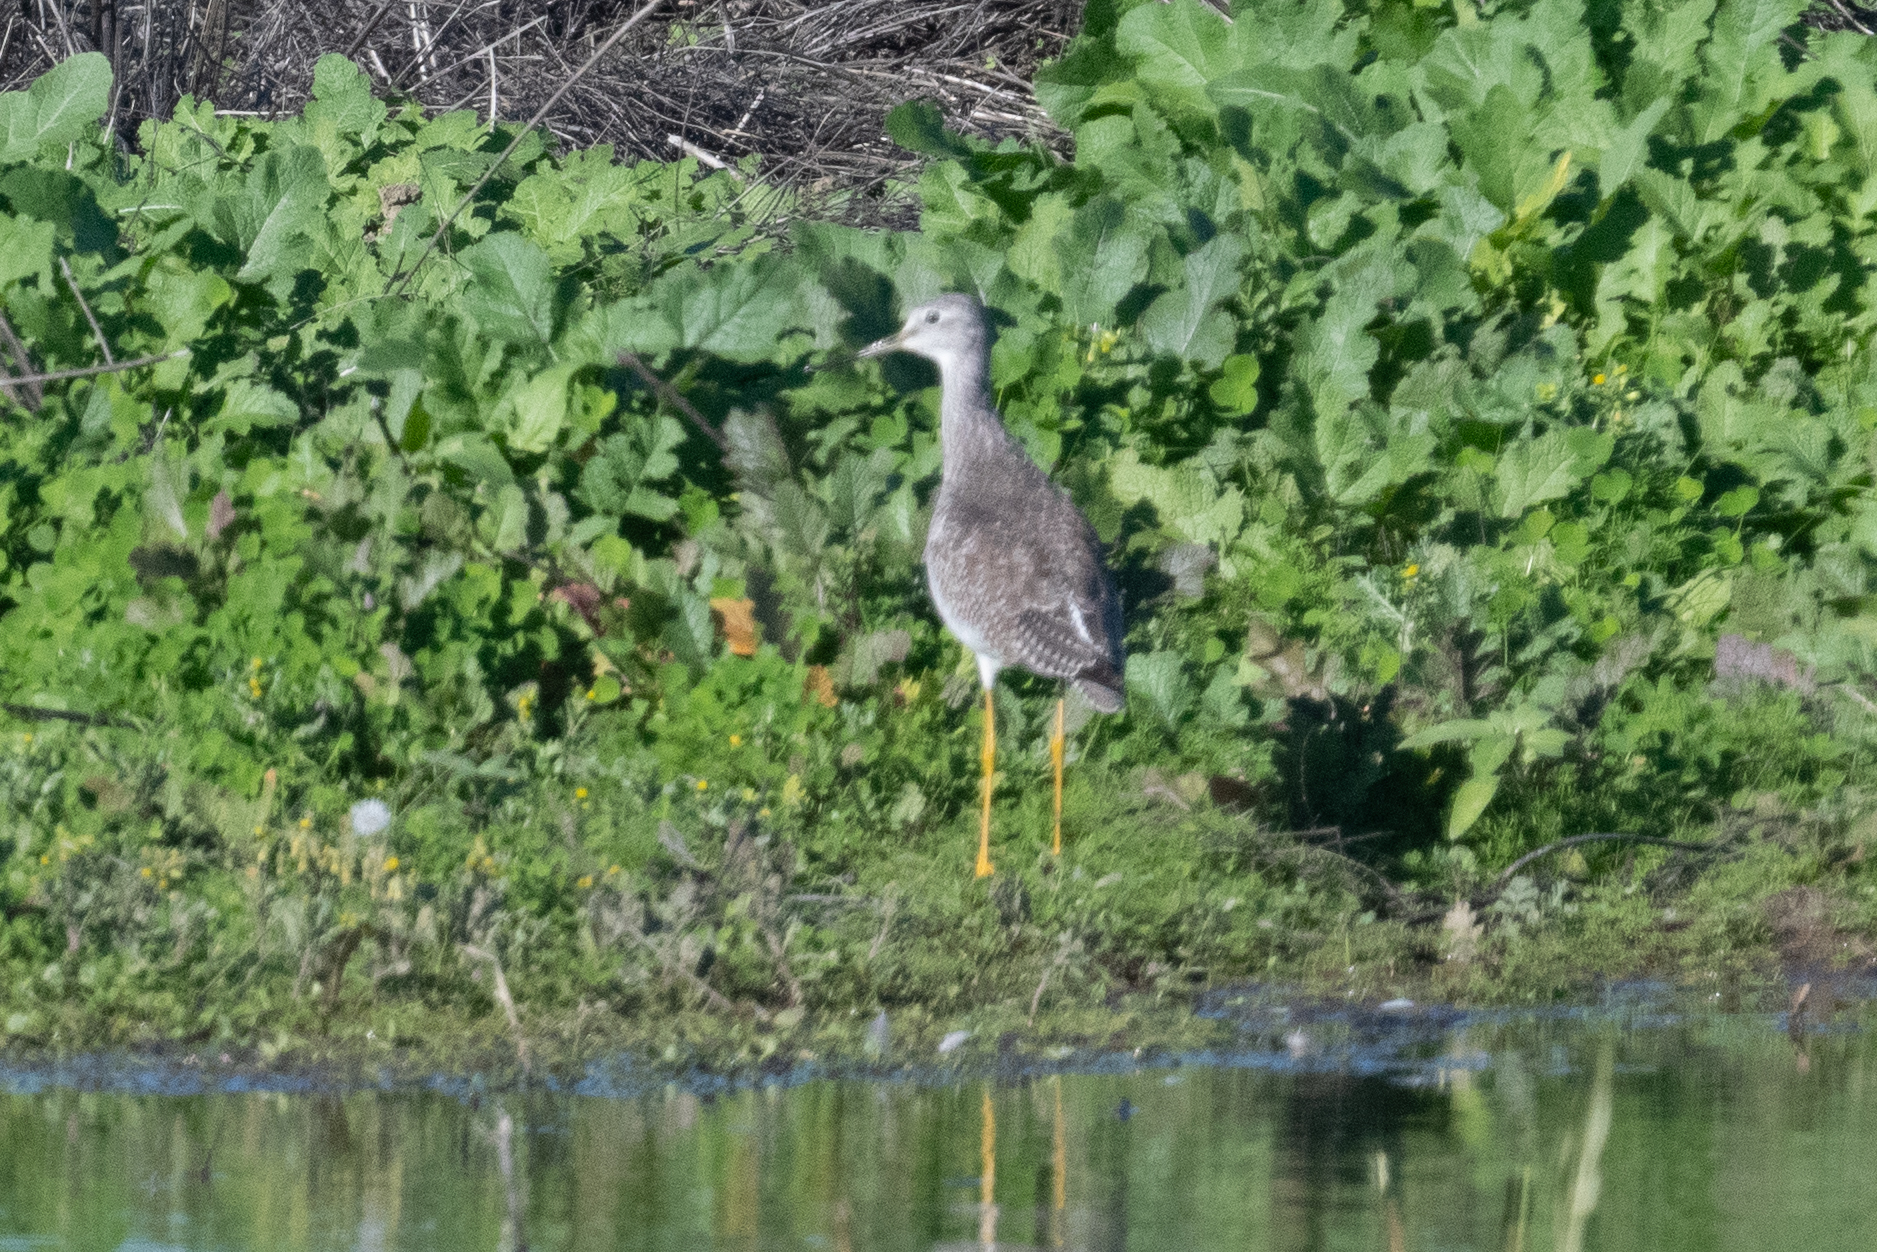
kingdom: Animalia
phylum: Chordata
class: Aves
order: Charadriiformes
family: Scolopacidae
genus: Tringa
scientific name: Tringa melanoleuca
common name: Greater yellowlegs
